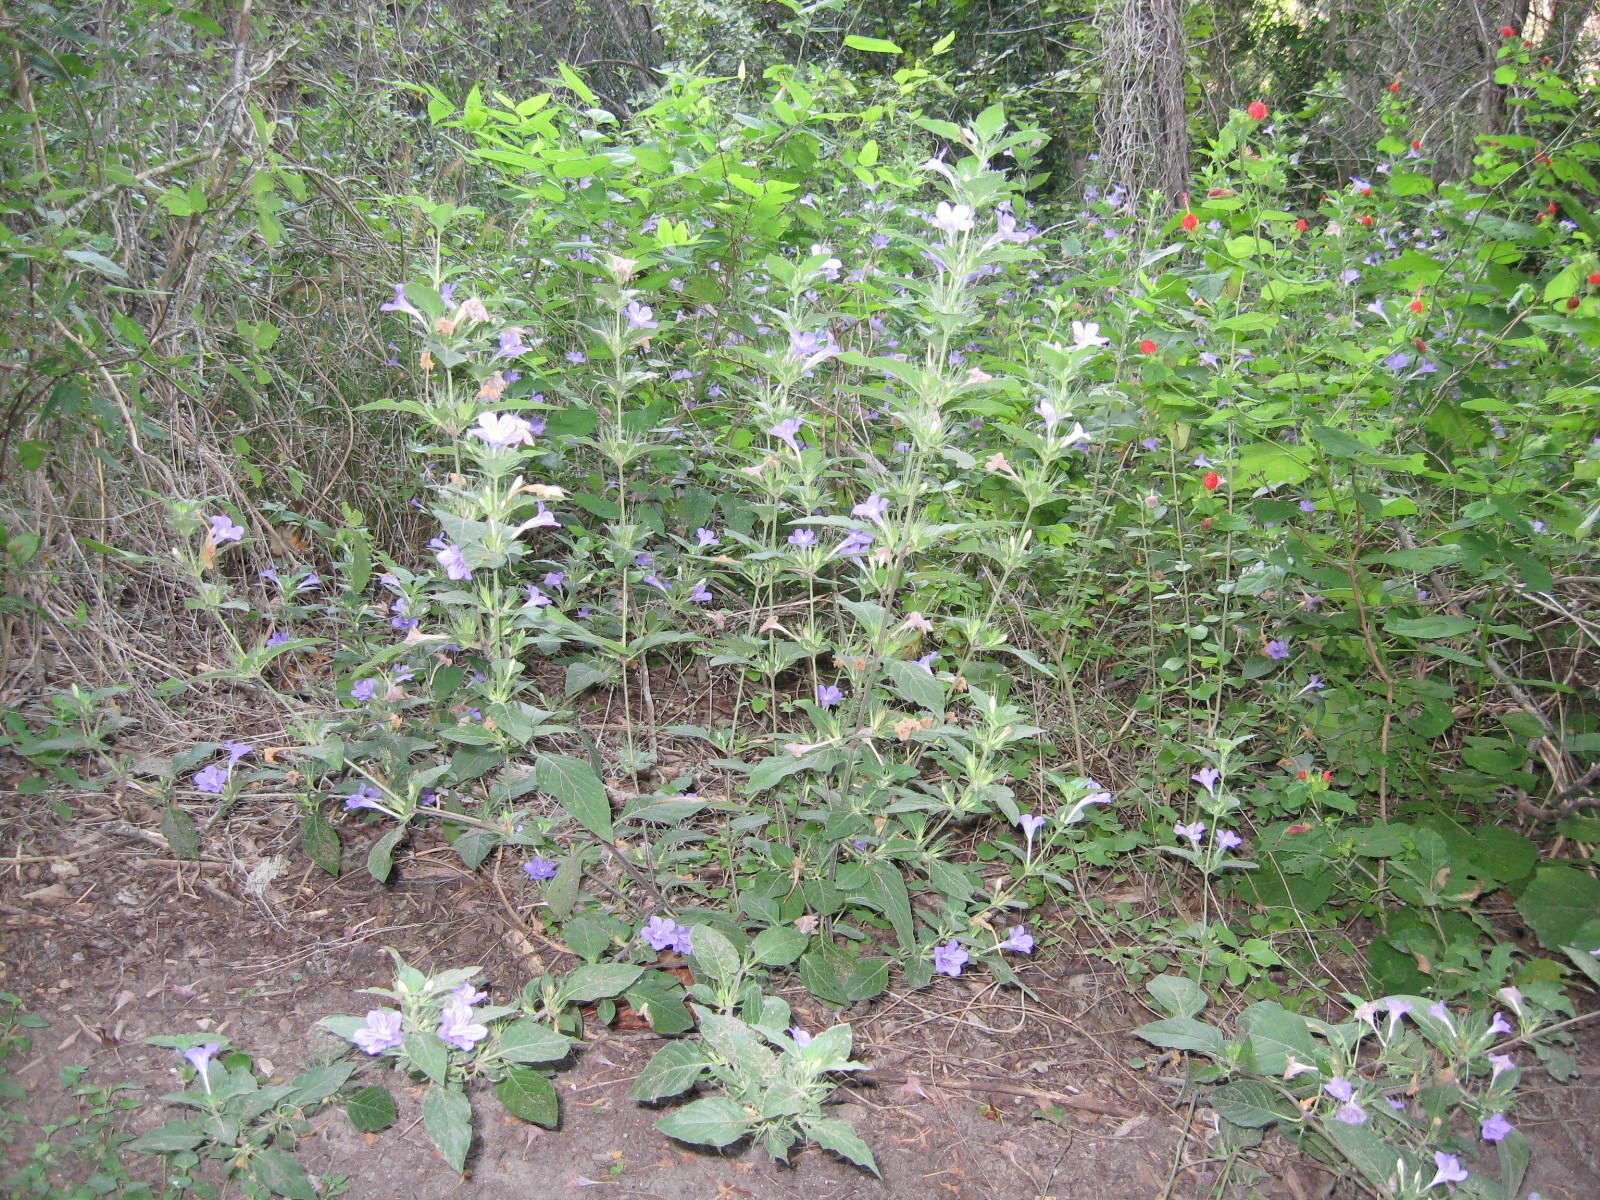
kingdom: Plantae
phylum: Tracheophyta
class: Magnoliopsida
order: Lamiales
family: Acanthaceae
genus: Ruellia
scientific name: Ruellia drummondiana
